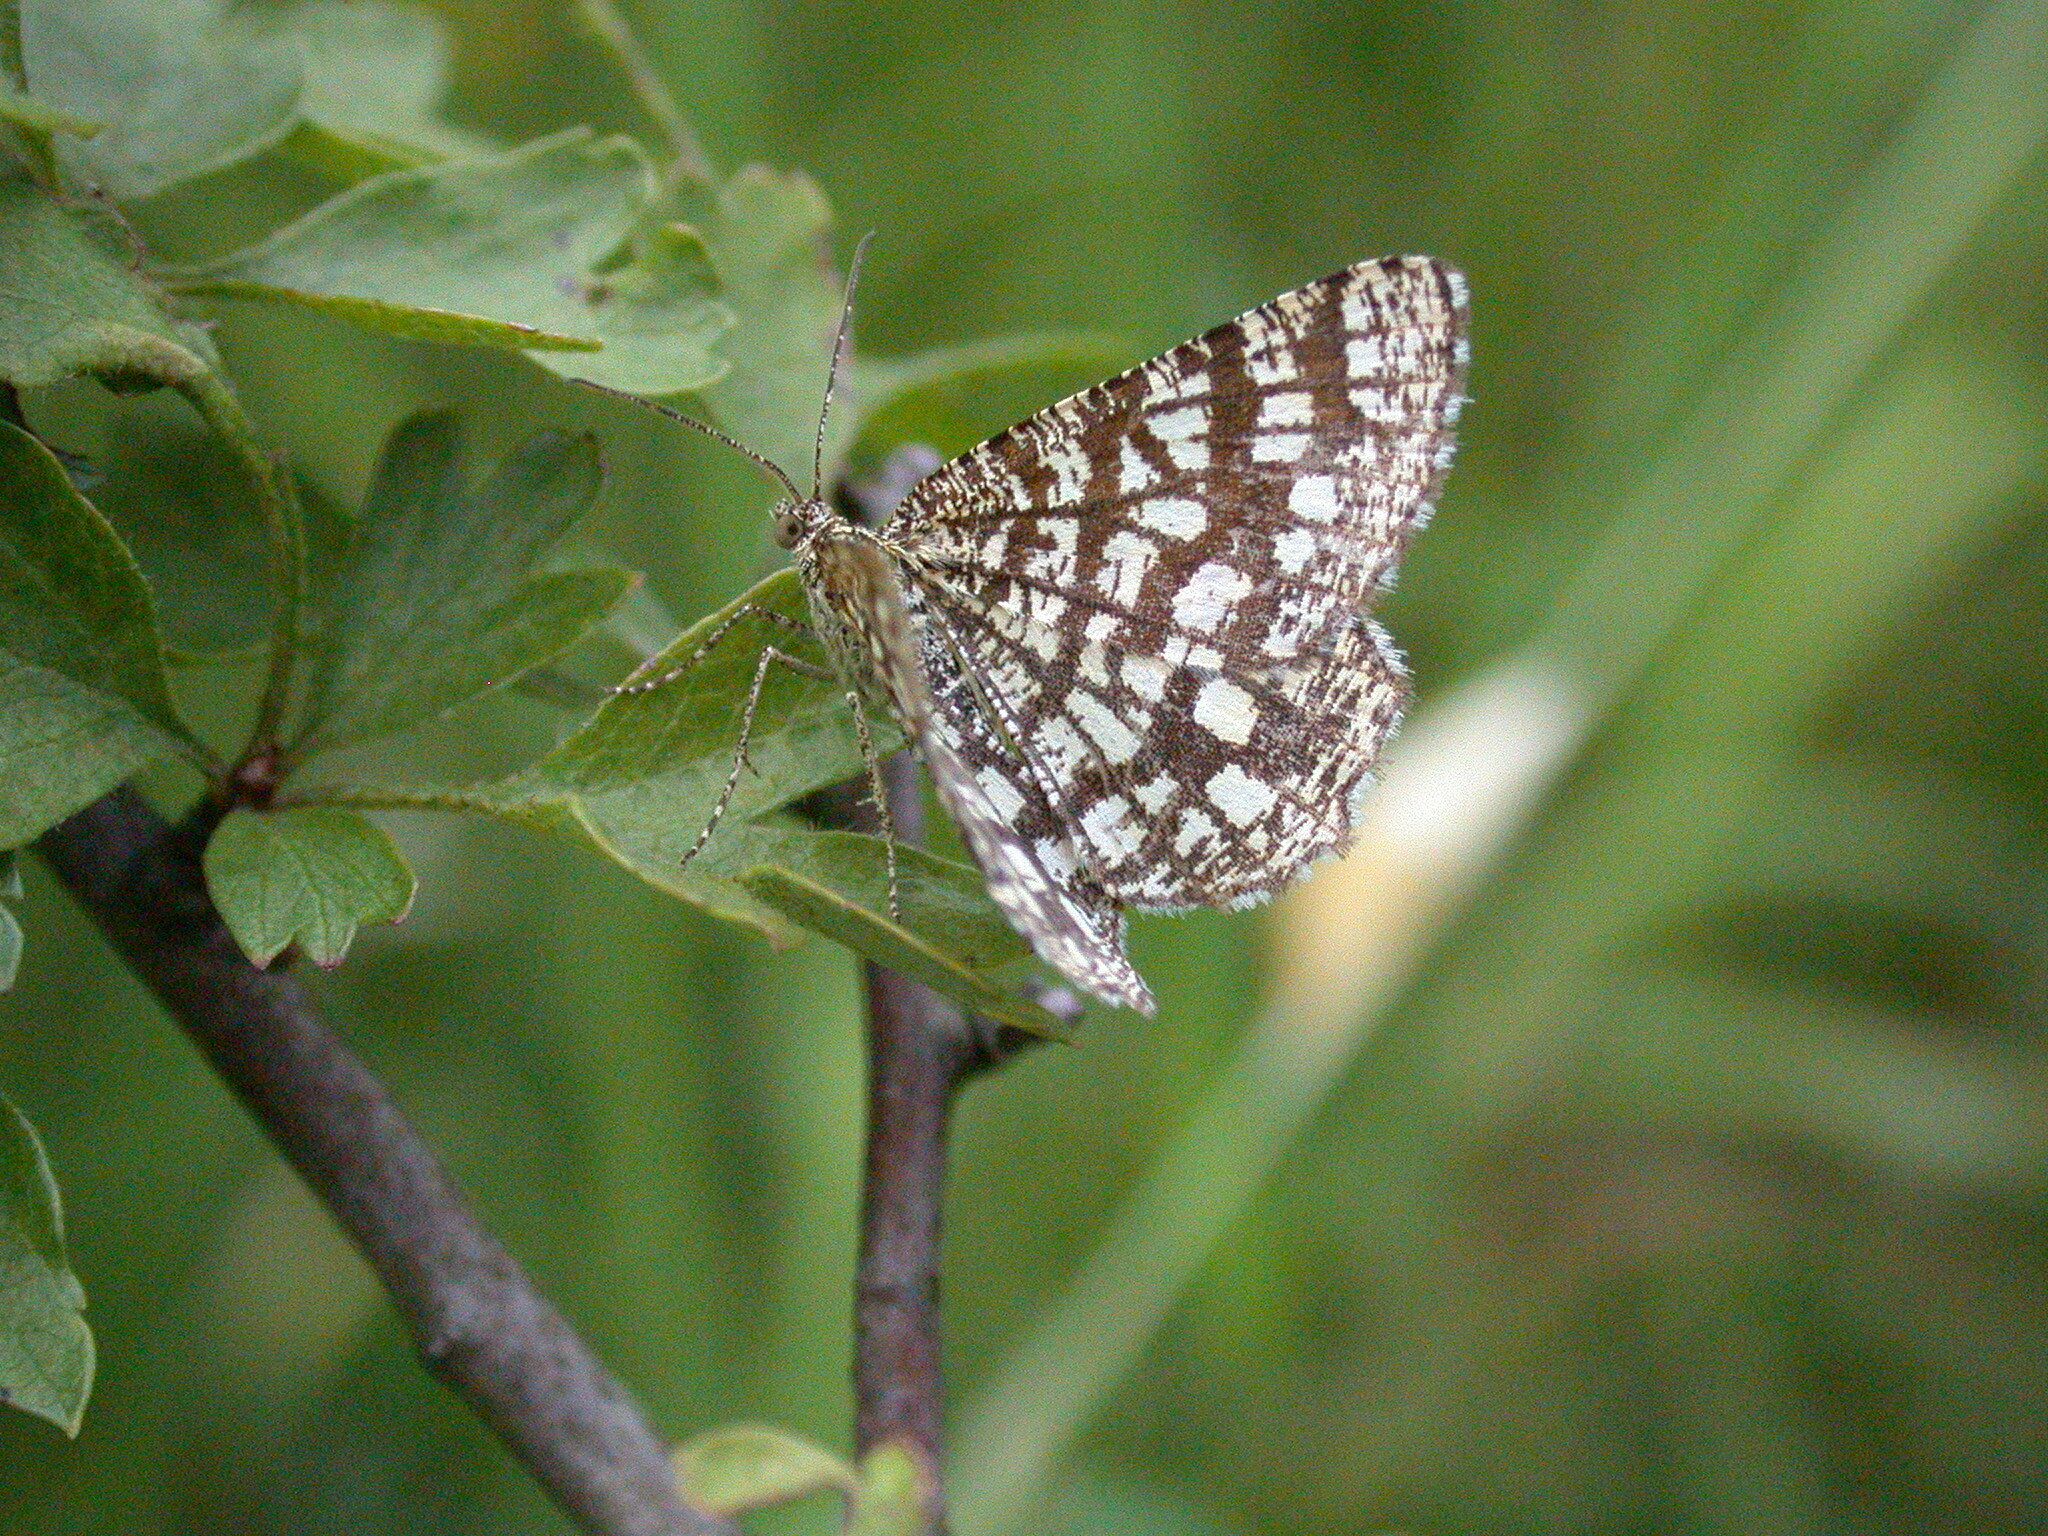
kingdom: Animalia
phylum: Arthropoda
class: Insecta
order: Lepidoptera
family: Geometridae
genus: Chiasmia
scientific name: Chiasmia clathrata
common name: Latticed heath
